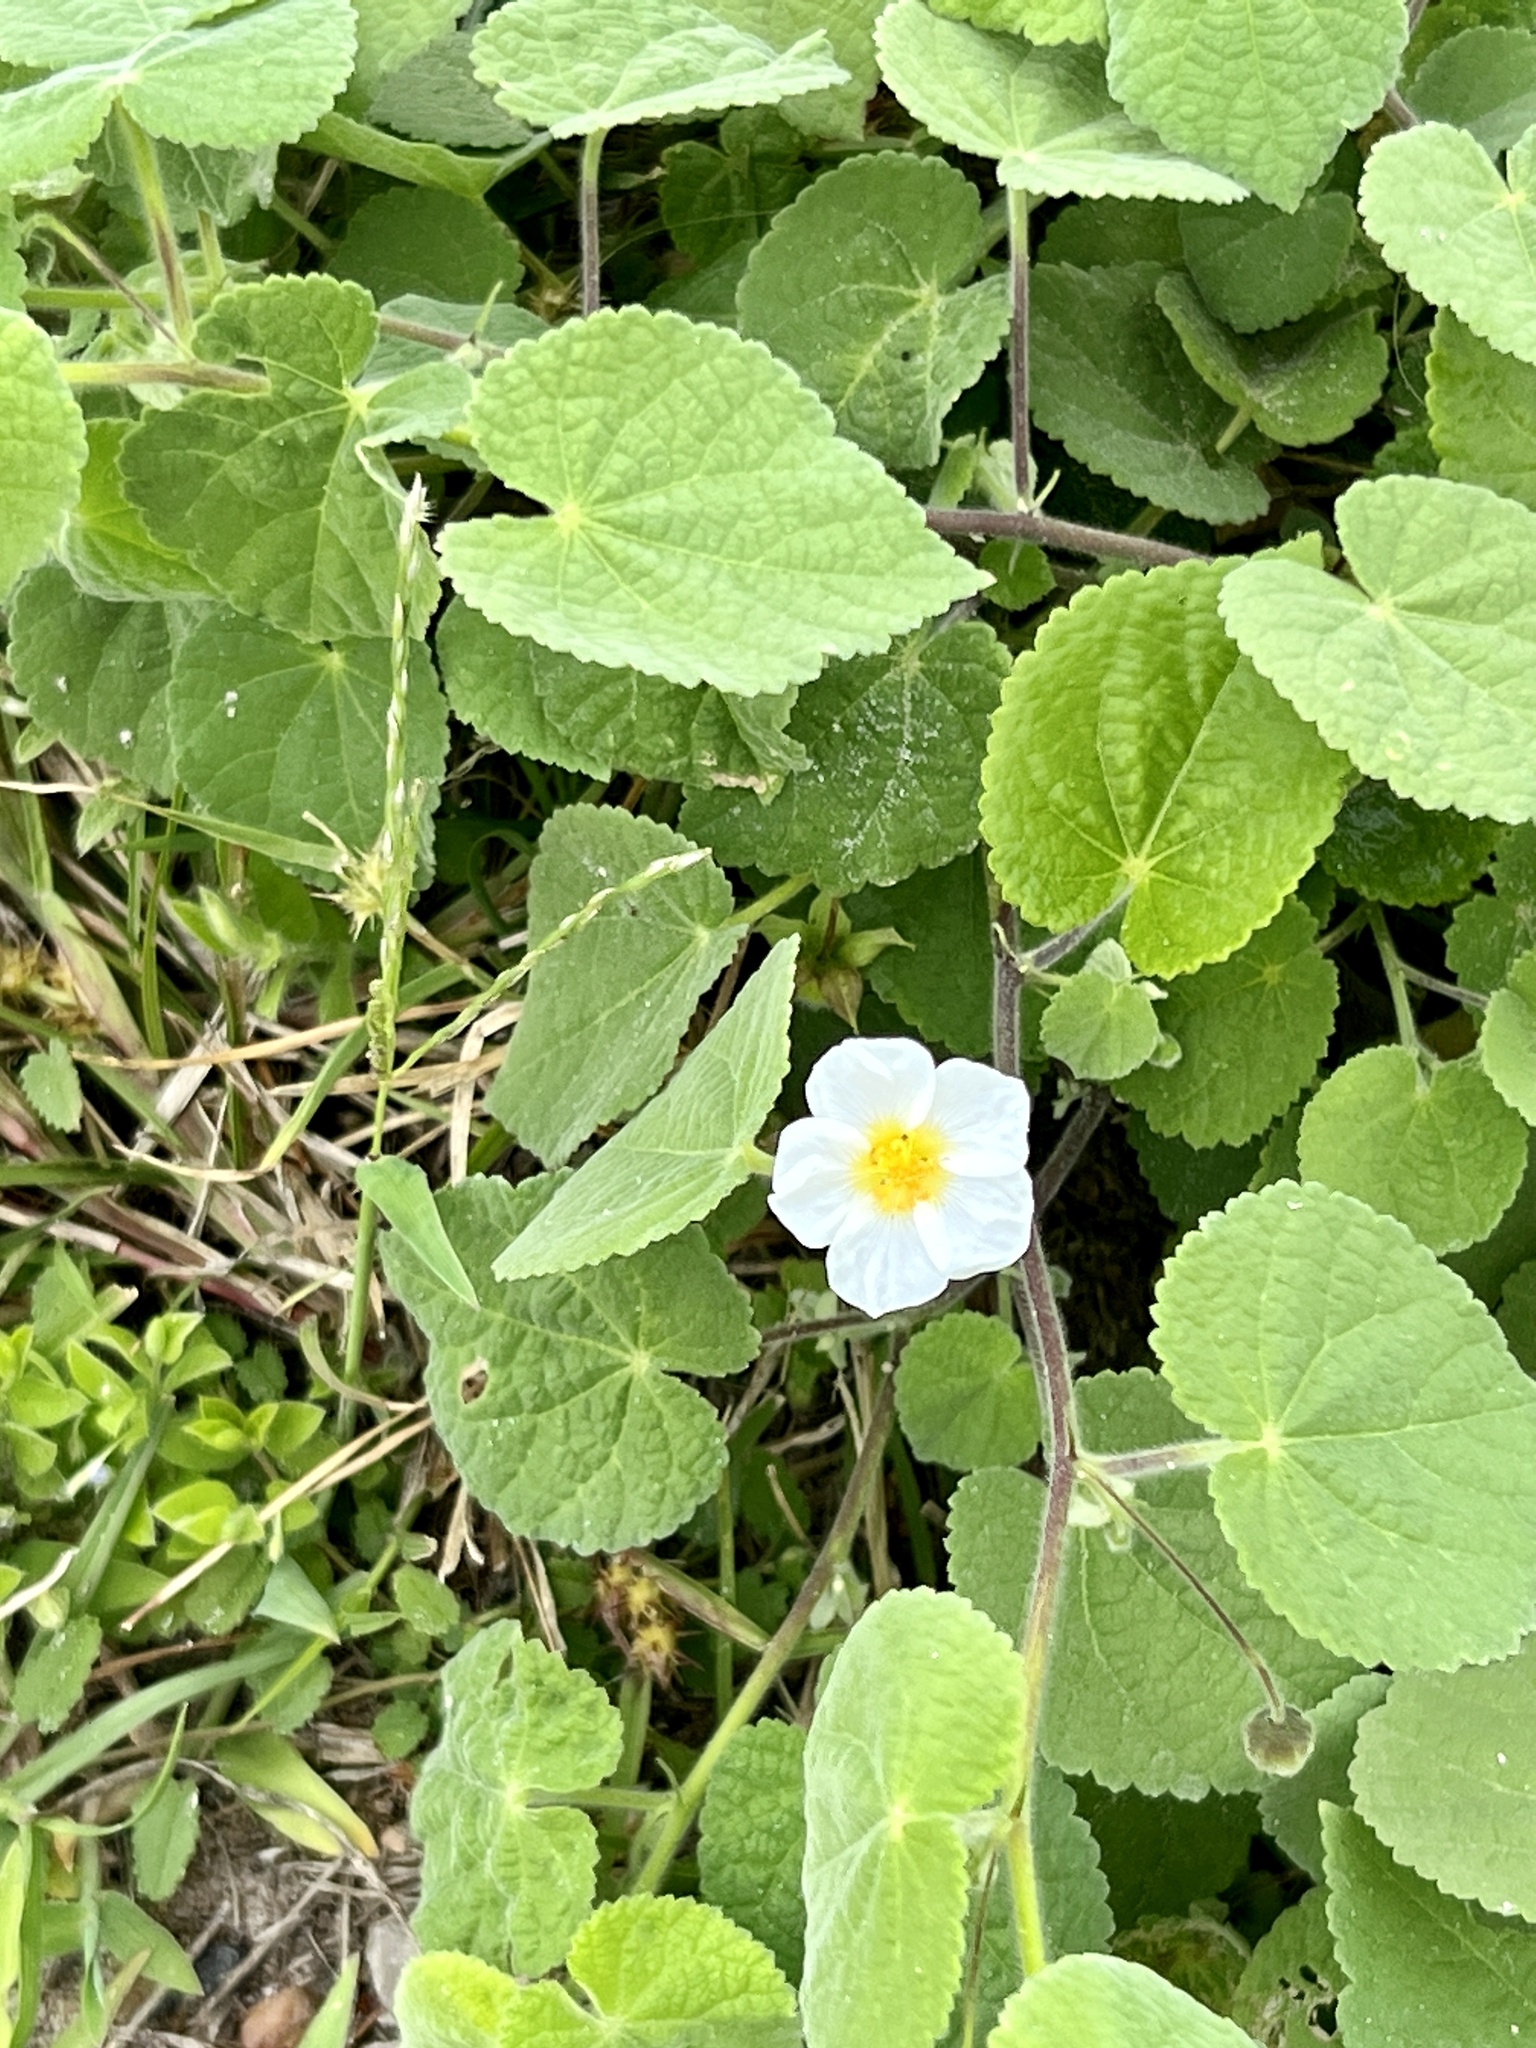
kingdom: Plantae
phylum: Tracheophyta
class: Magnoliopsida
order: Malvales
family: Malvaceae
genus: Herissantia
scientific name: Herissantia crispa
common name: Bladdermallow
